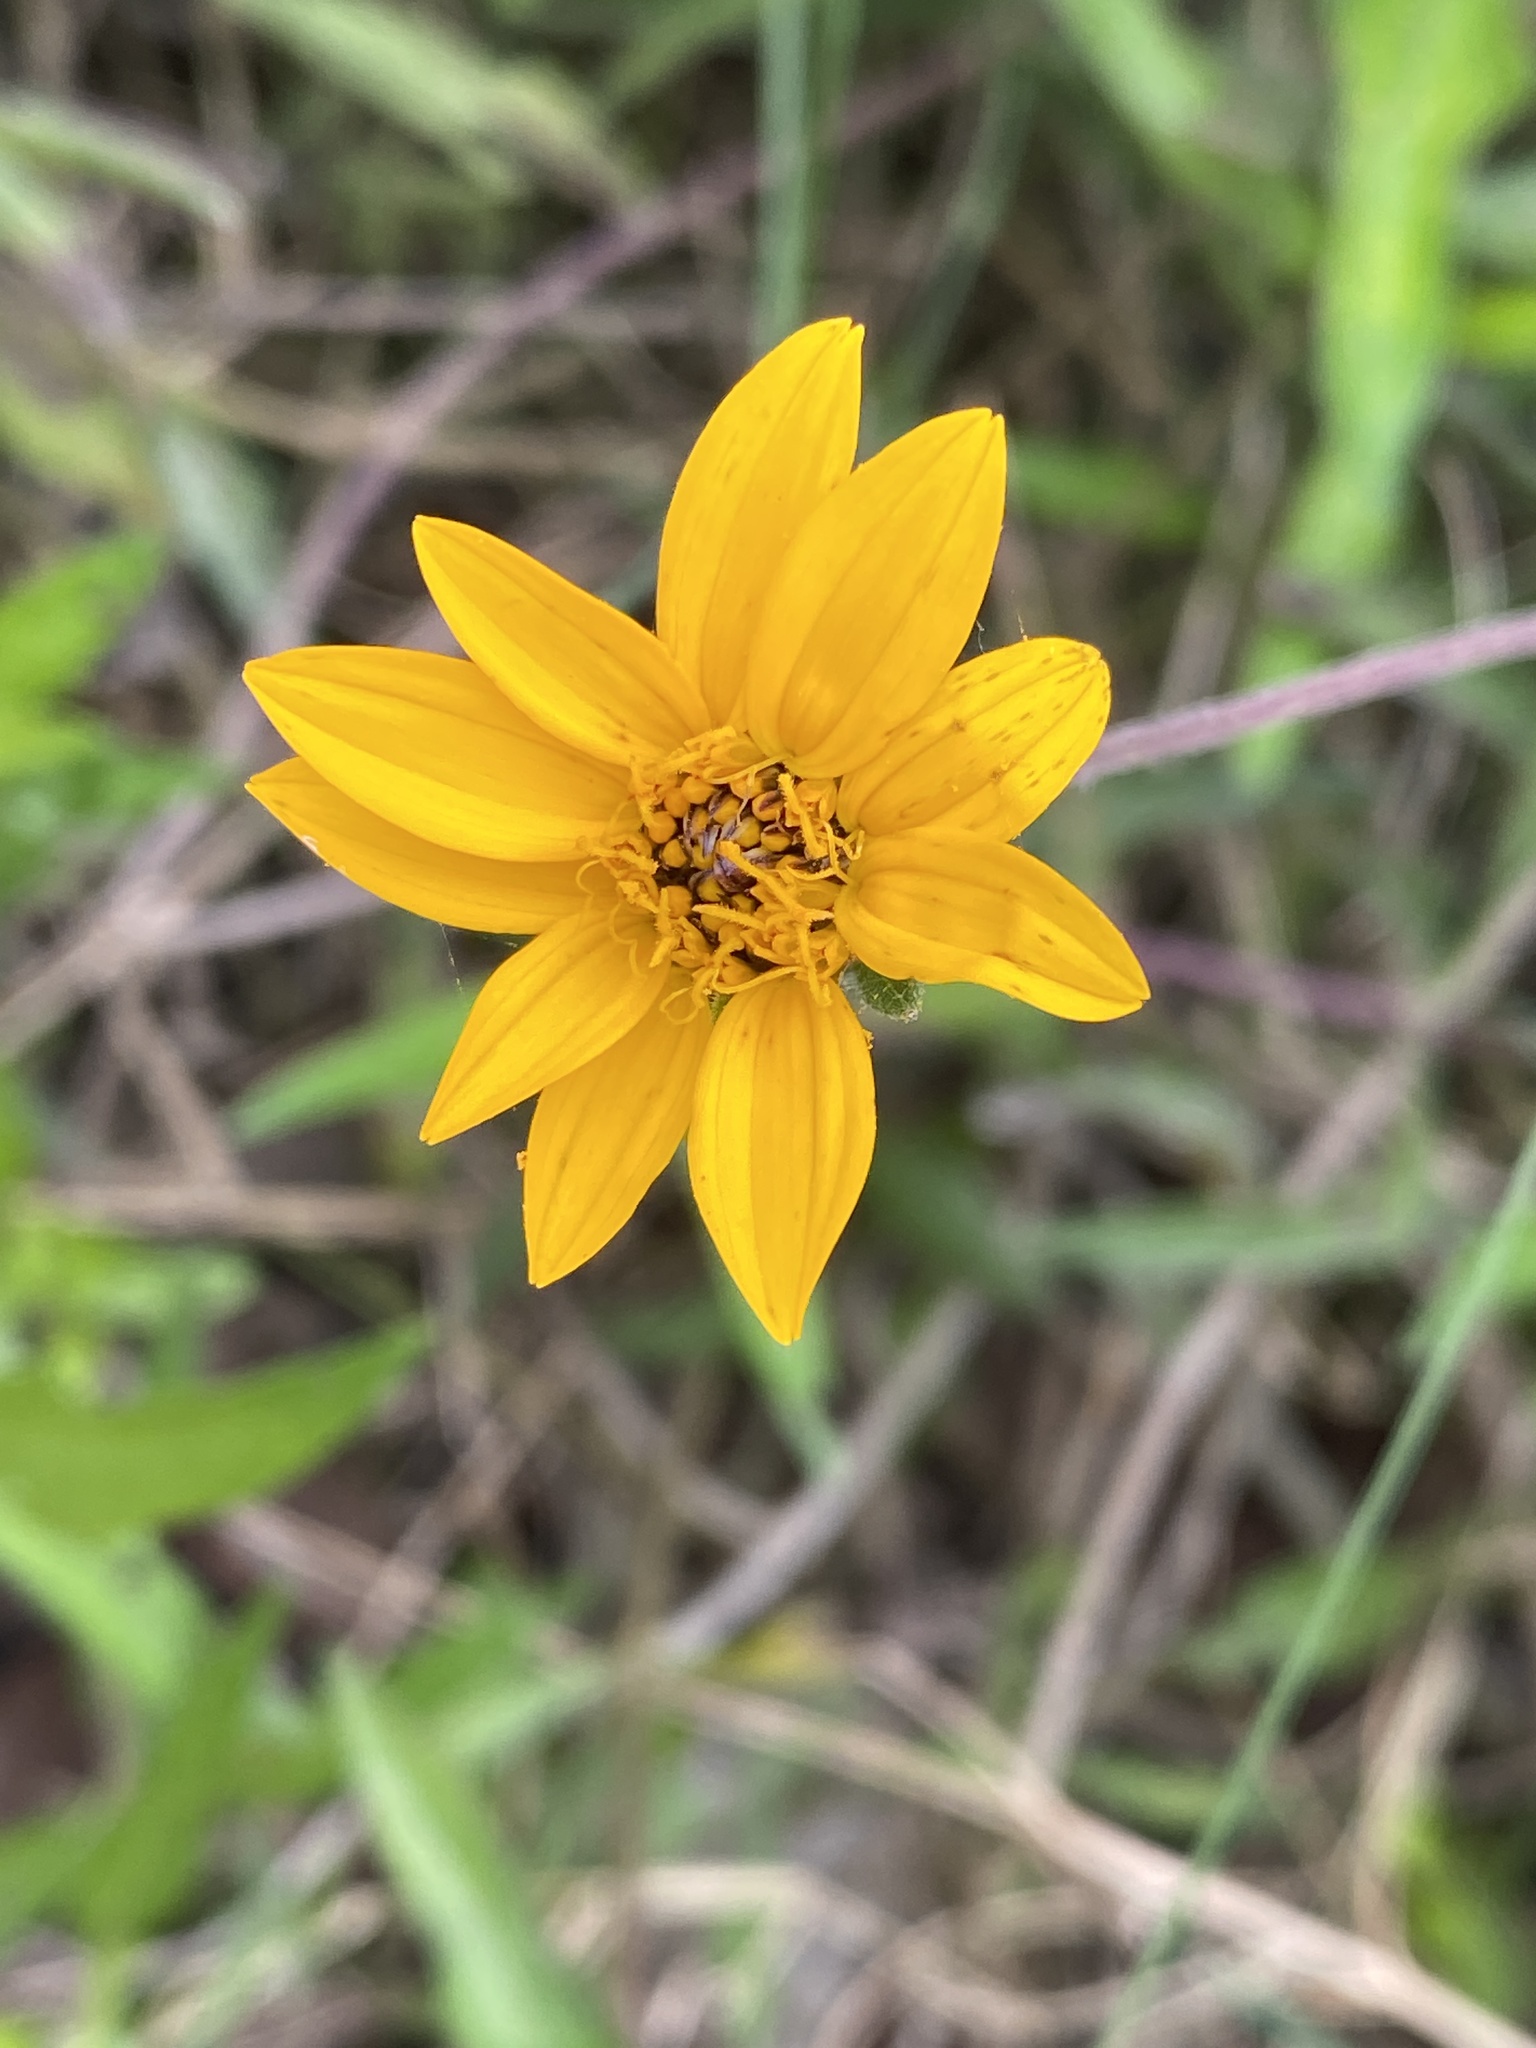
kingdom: Plantae
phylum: Tracheophyta
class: Magnoliopsida
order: Asterales
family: Asteraceae
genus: Wedelia
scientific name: Wedelia acapulcensis
